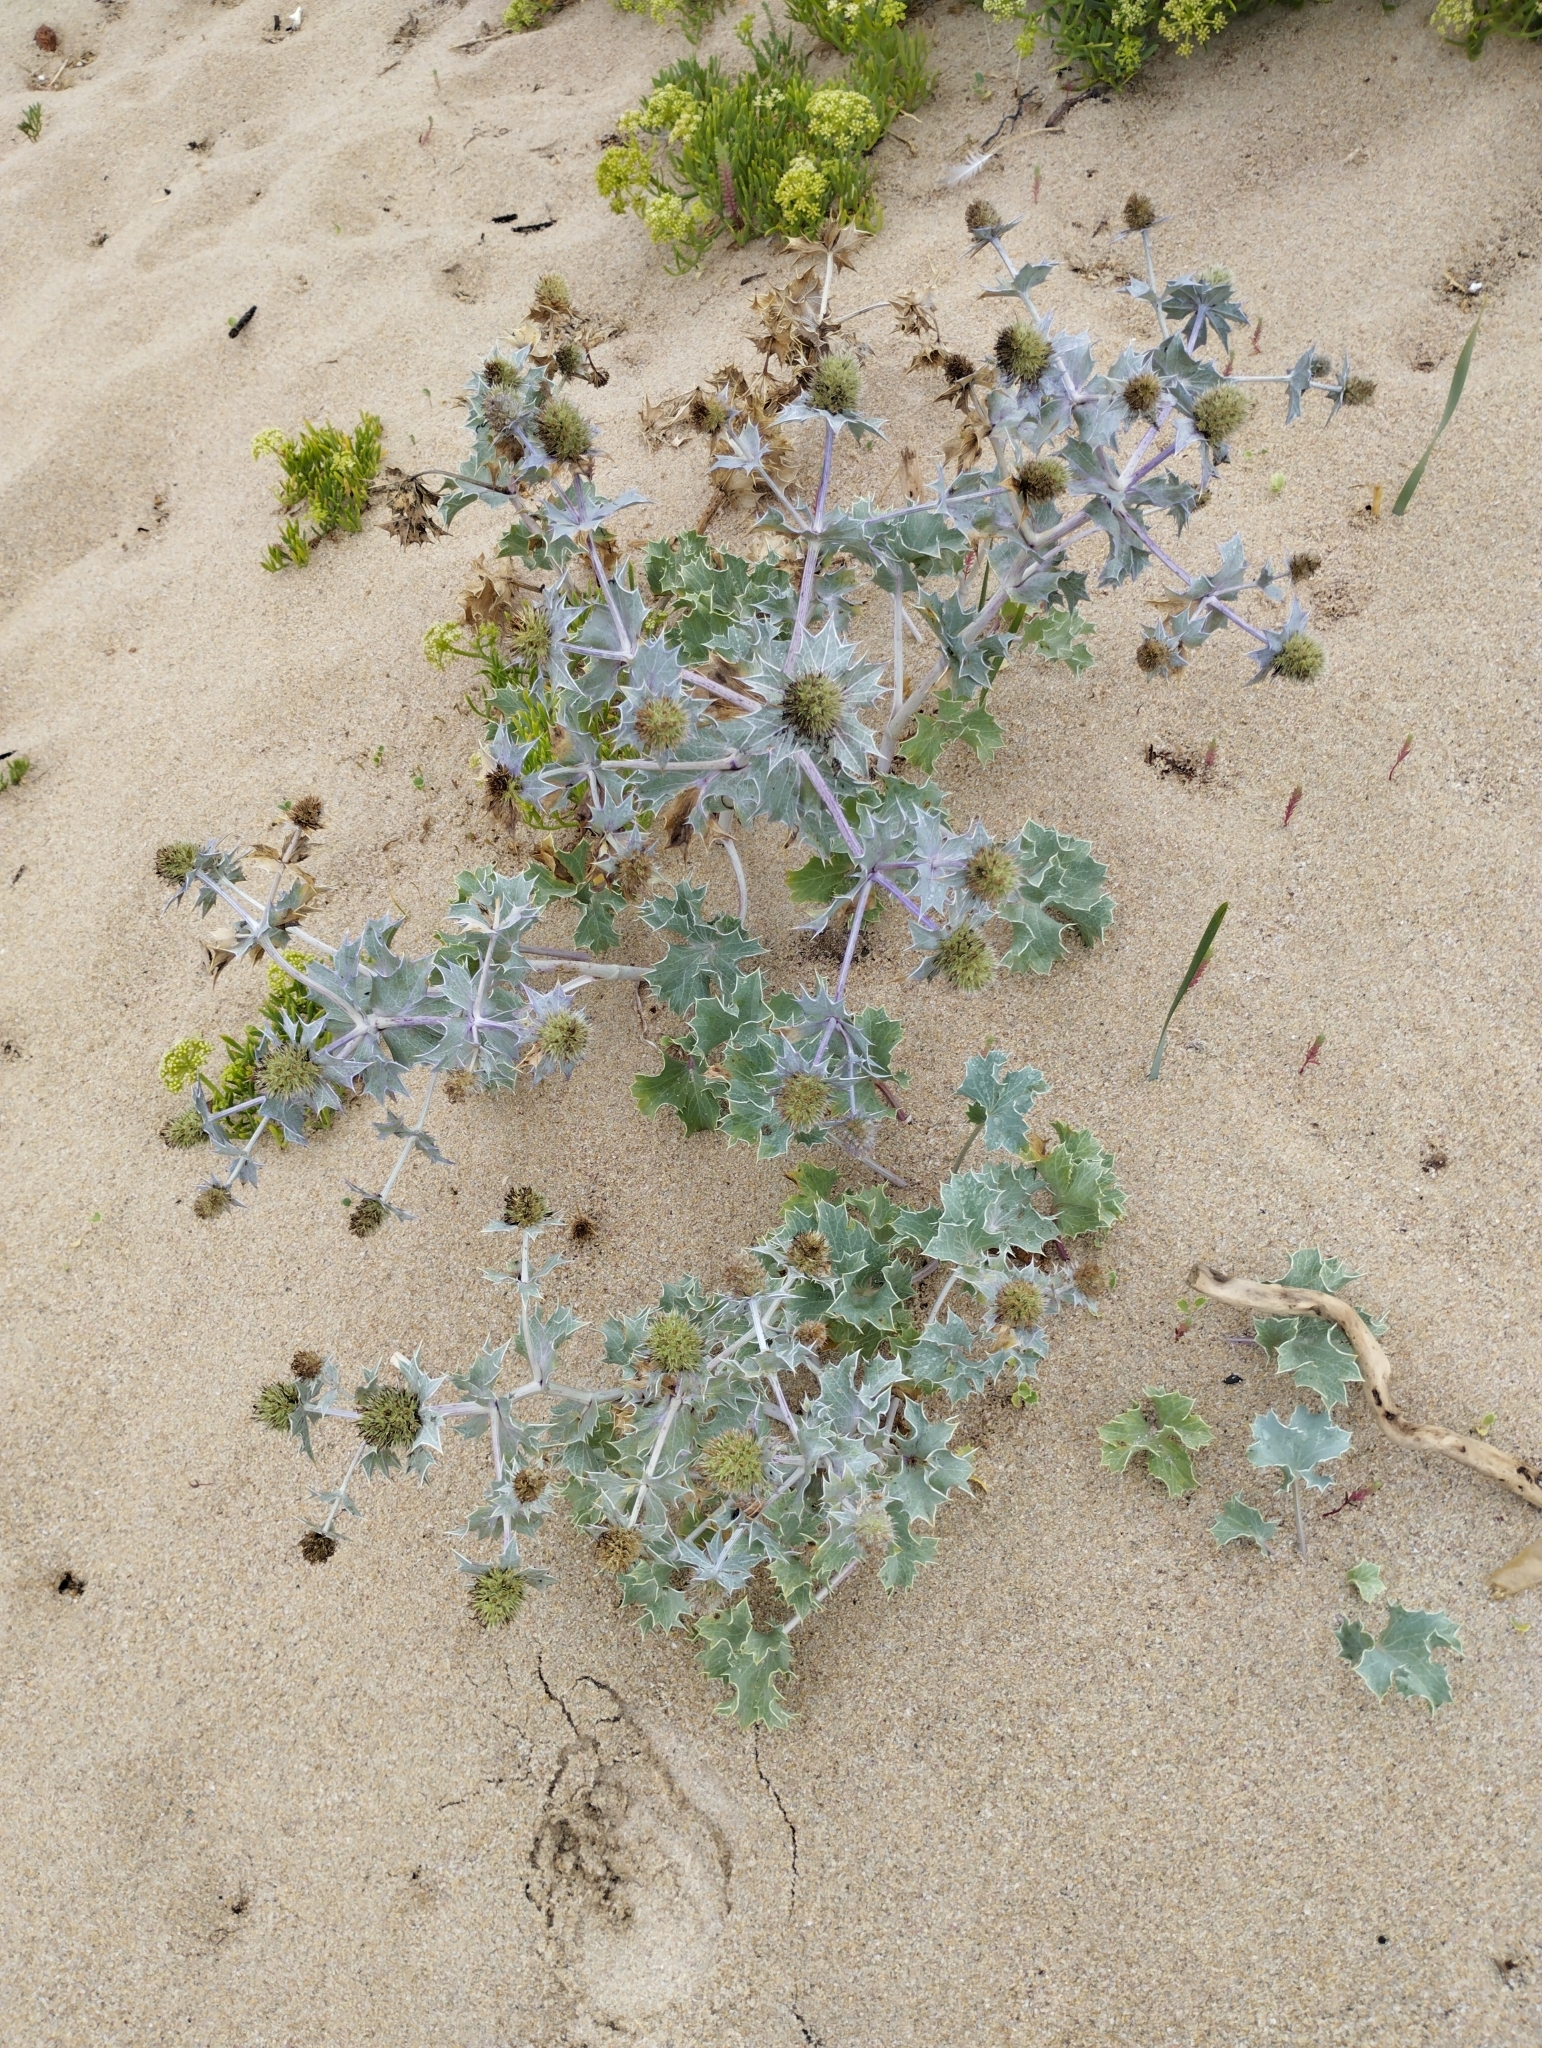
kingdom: Plantae
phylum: Tracheophyta
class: Magnoliopsida
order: Apiales
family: Apiaceae
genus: Eryngium
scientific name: Eryngium maritimum
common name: Sea-holly
